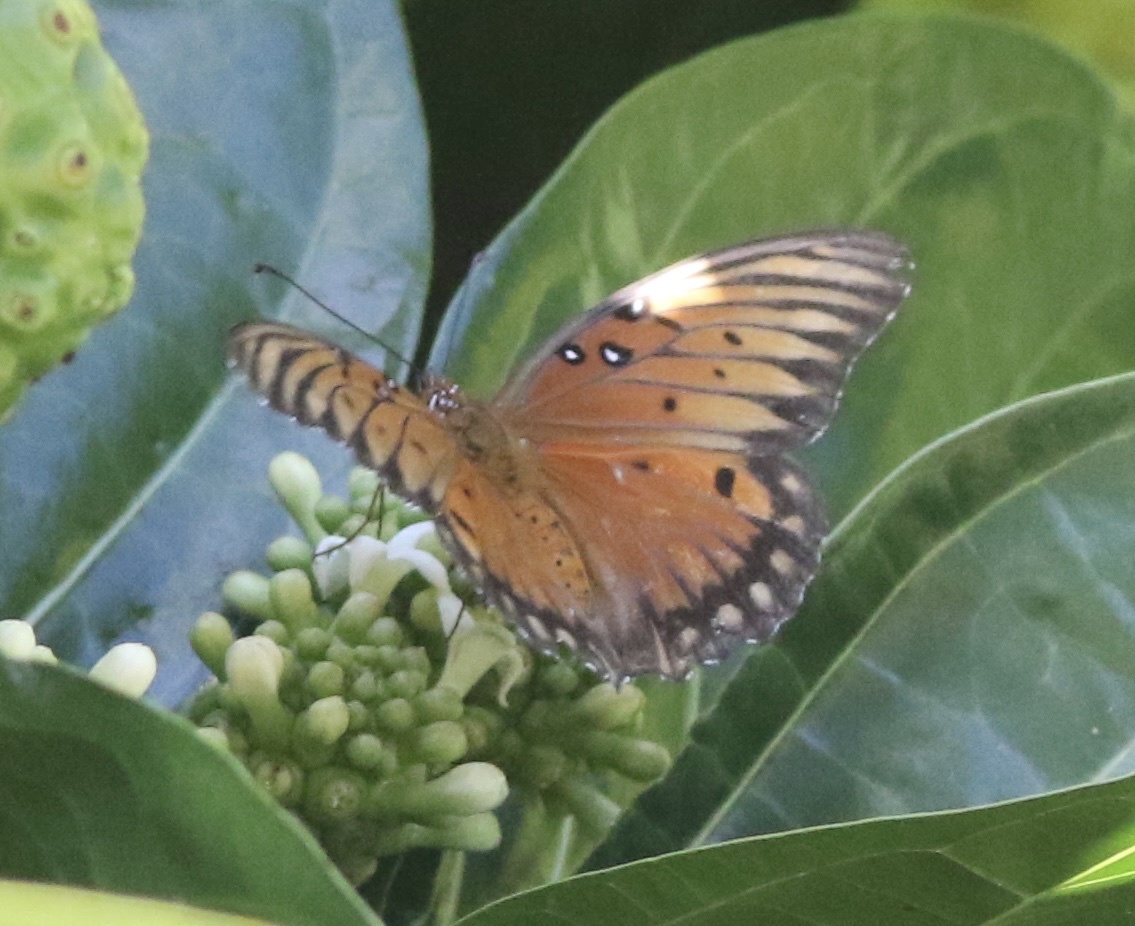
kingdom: Animalia
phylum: Arthropoda
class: Insecta
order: Lepidoptera
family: Nymphalidae
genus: Dione
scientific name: Dione vanillae
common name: Gulf fritillary
